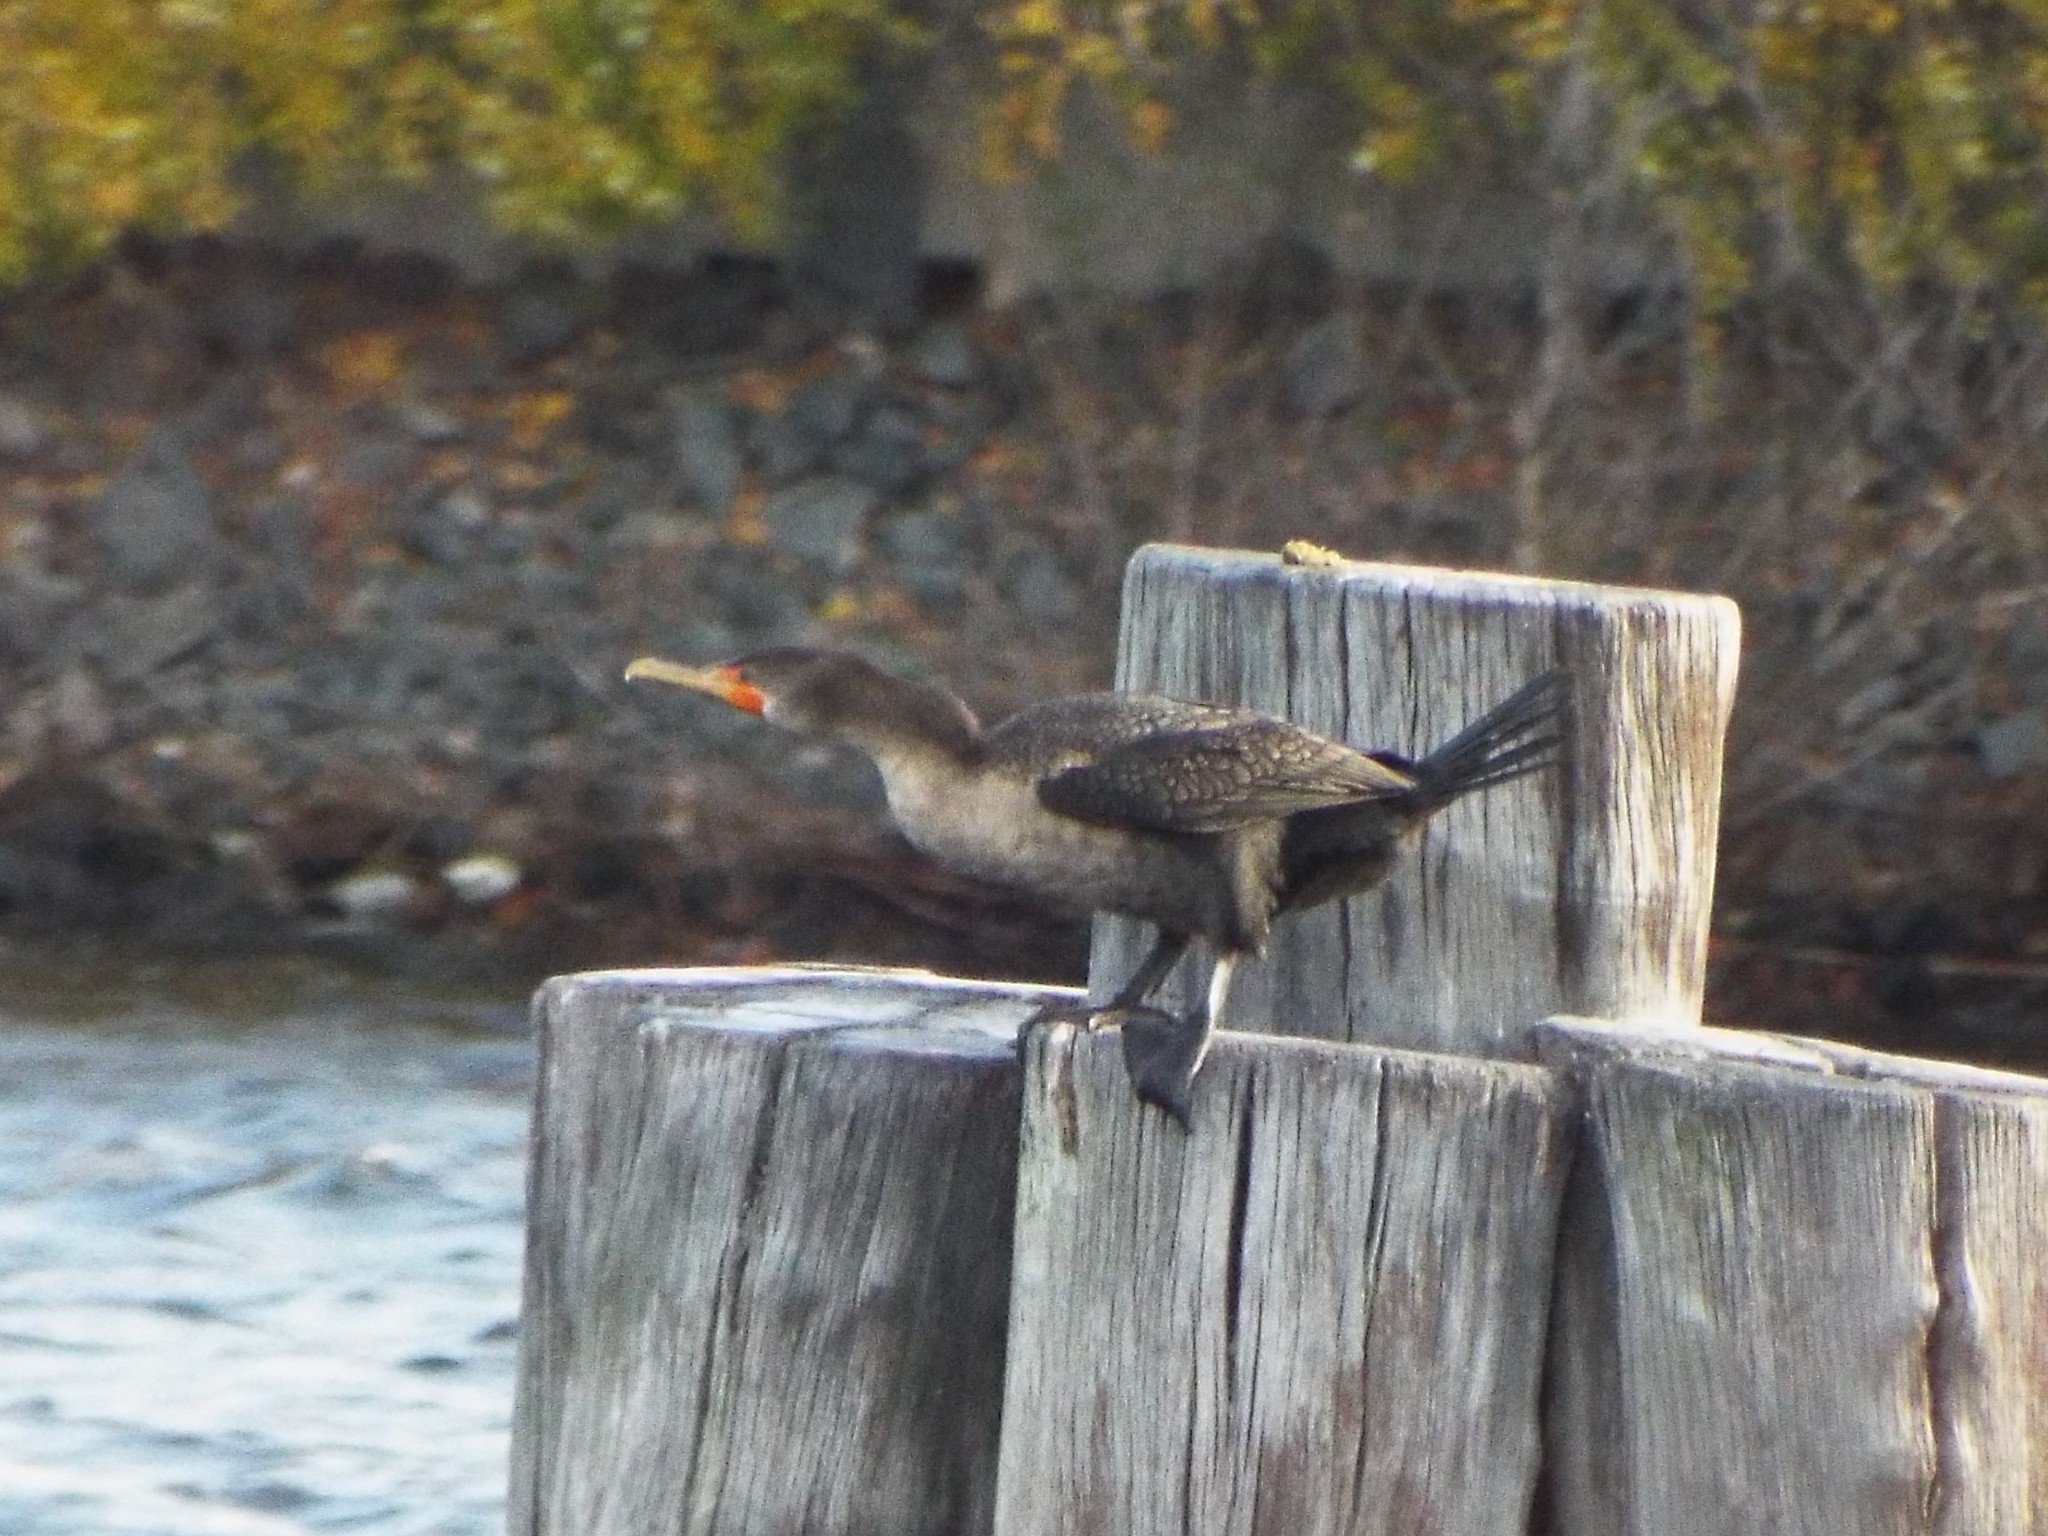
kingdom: Animalia
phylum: Chordata
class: Aves
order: Suliformes
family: Phalacrocoracidae
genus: Phalacrocorax
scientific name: Phalacrocorax auritus
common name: Double-crested cormorant
